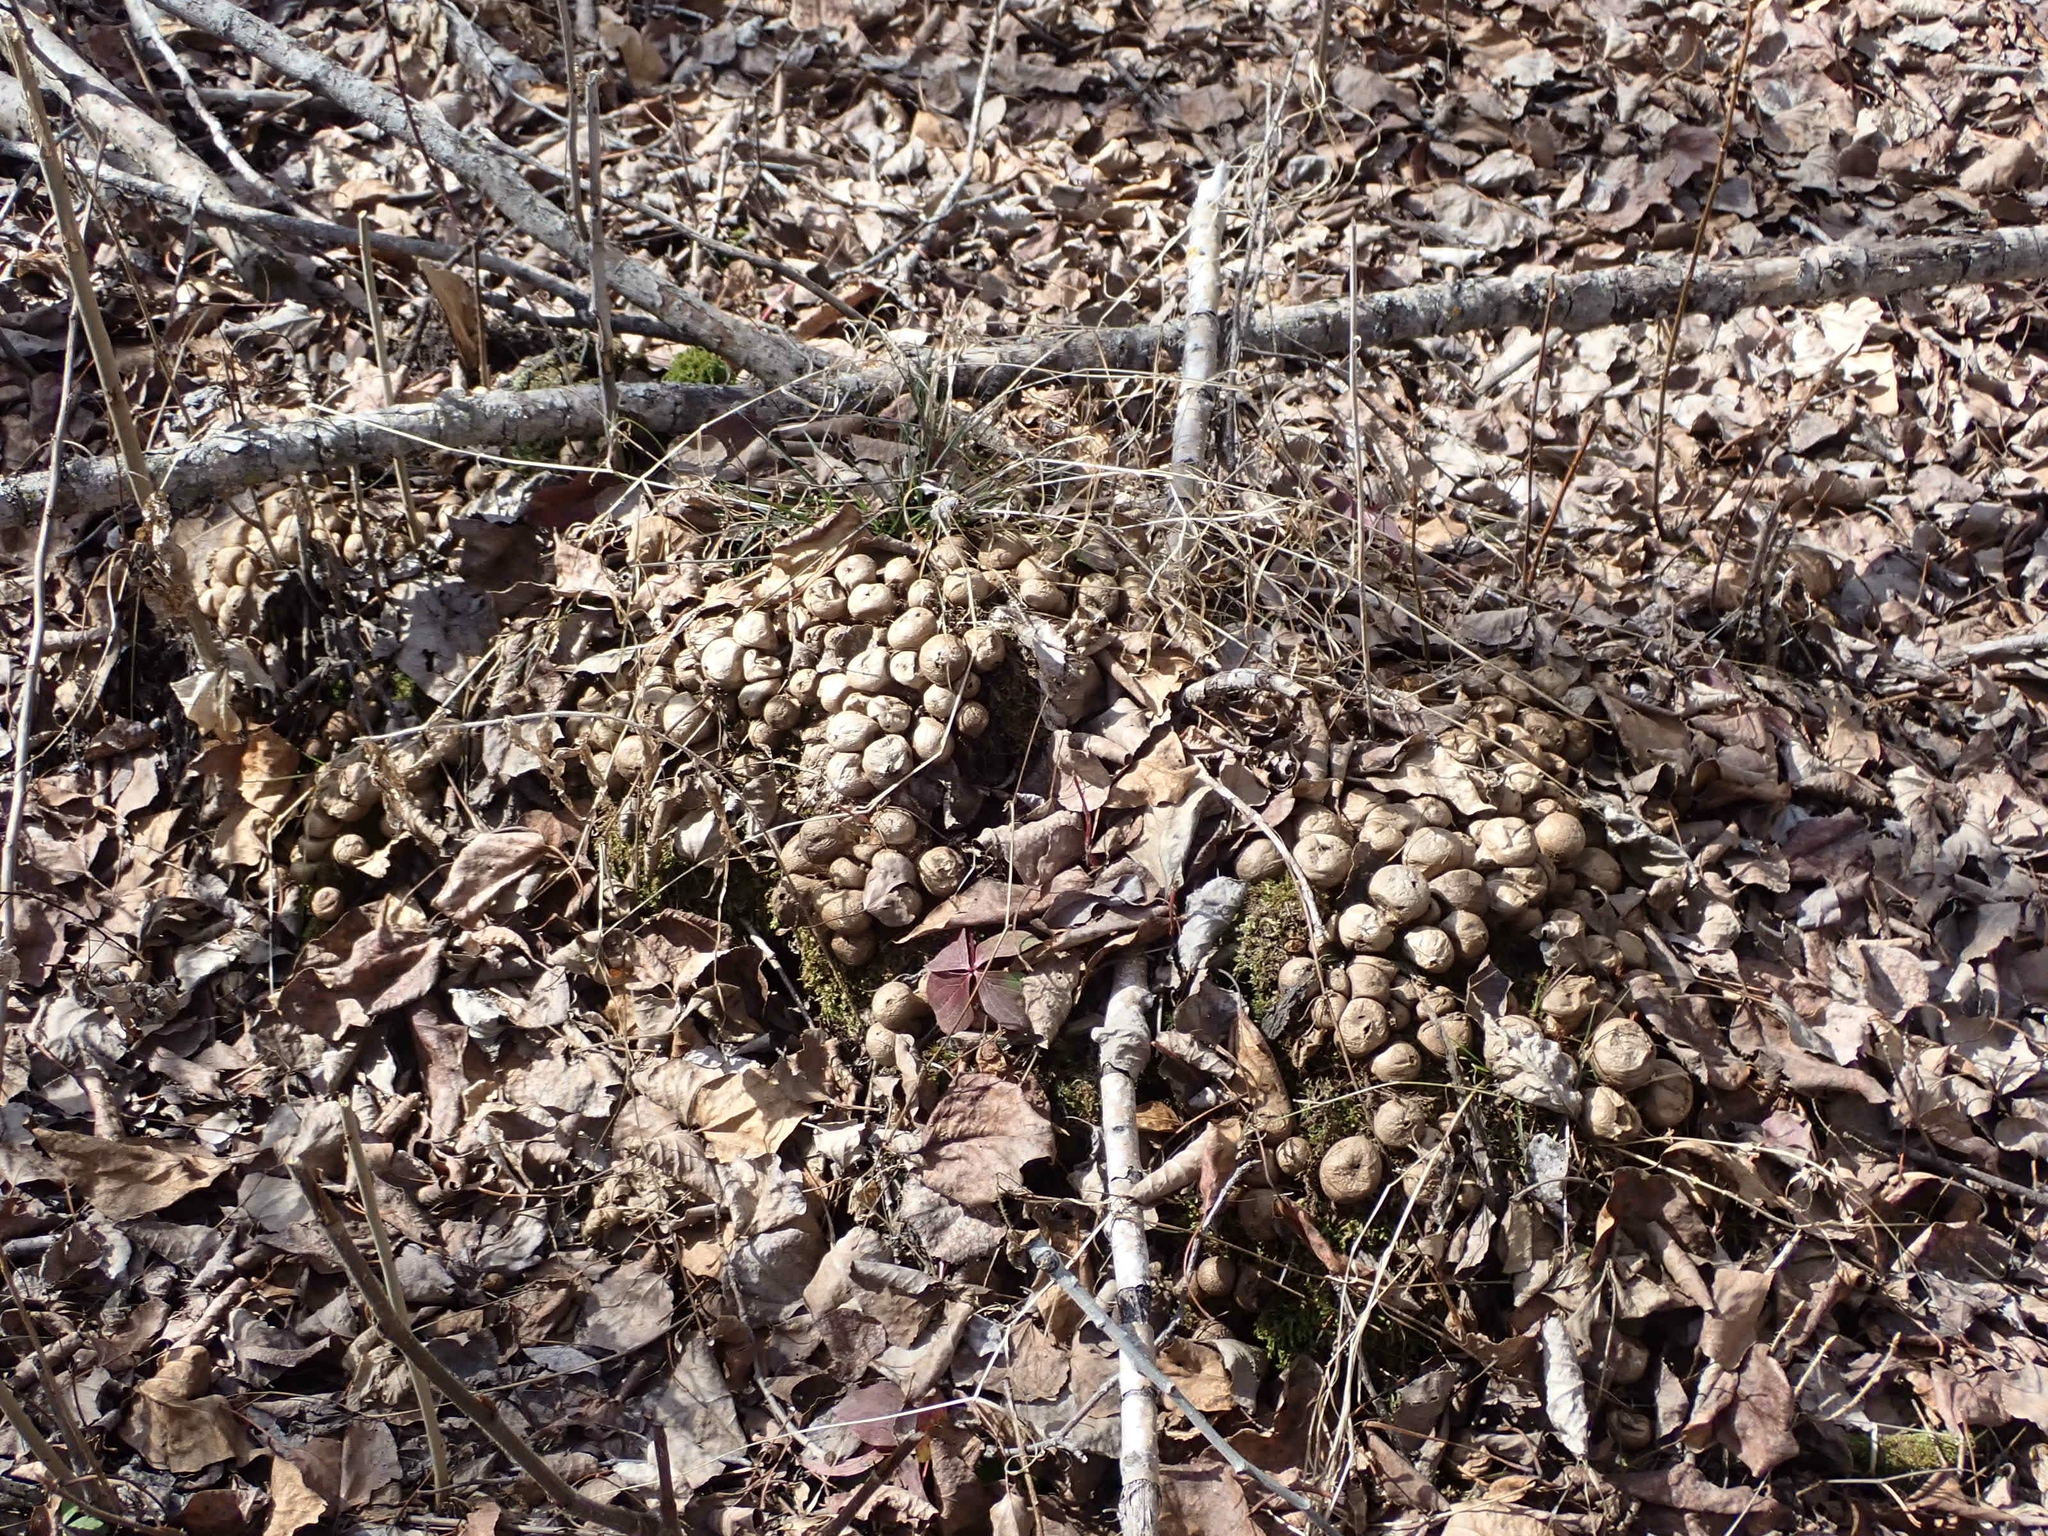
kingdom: Fungi
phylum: Basidiomycota
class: Agaricomycetes
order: Agaricales
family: Lycoperdaceae
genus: Apioperdon
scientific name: Apioperdon pyriforme
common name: Pear-shaped puffball
